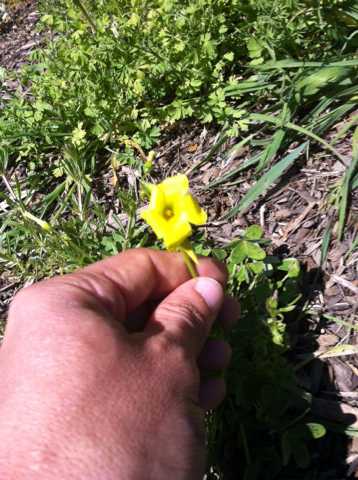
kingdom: Plantae
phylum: Tracheophyta
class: Magnoliopsida
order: Oxalidales
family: Oxalidaceae
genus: Oxalis
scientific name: Oxalis pes-caprae
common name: Bermuda-buttercup
